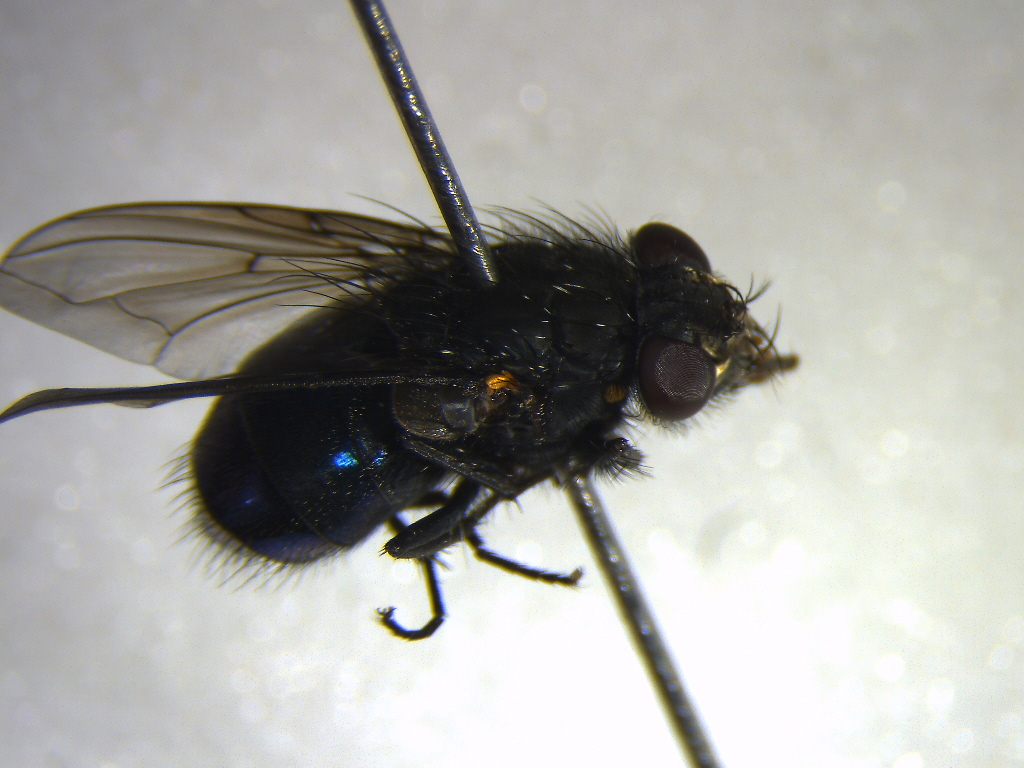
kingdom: Animalia
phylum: Arthropoda
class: Insecta
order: Diptera
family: Calliphoridae
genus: Calliphora
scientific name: Calliphora quadrimaculata
